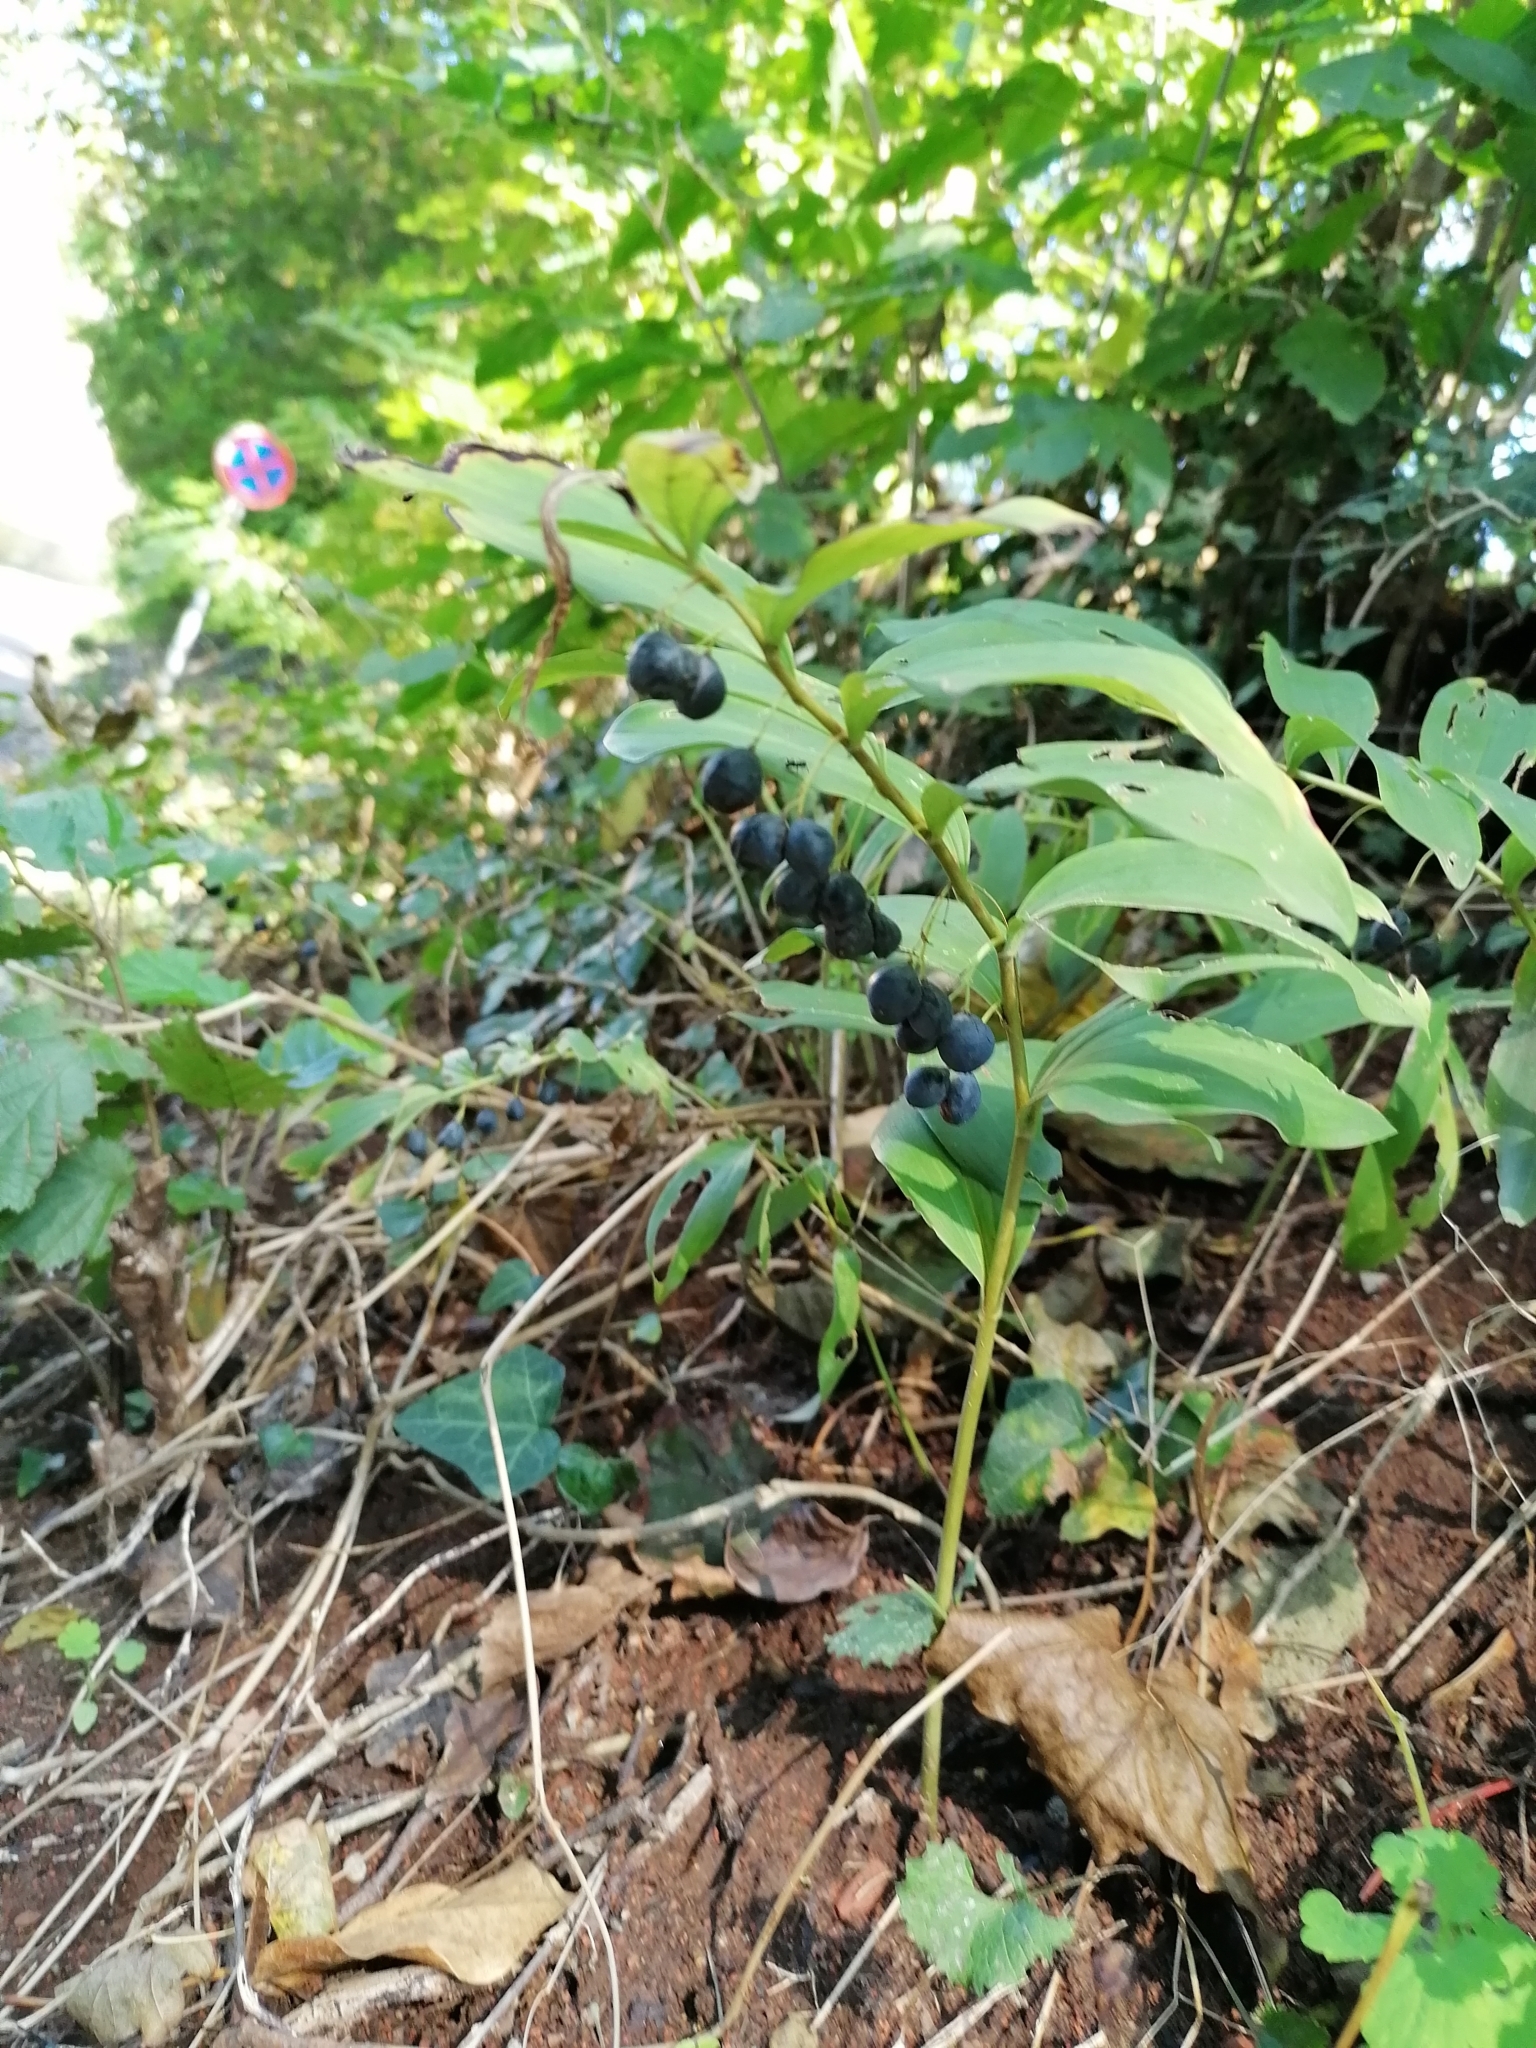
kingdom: Plantae
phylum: Tracheophyta
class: Liliopsida
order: Asparagales
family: Asparagaceae
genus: Polygonatum
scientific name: Polygonatum multiflorum
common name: Solomon's-seal
